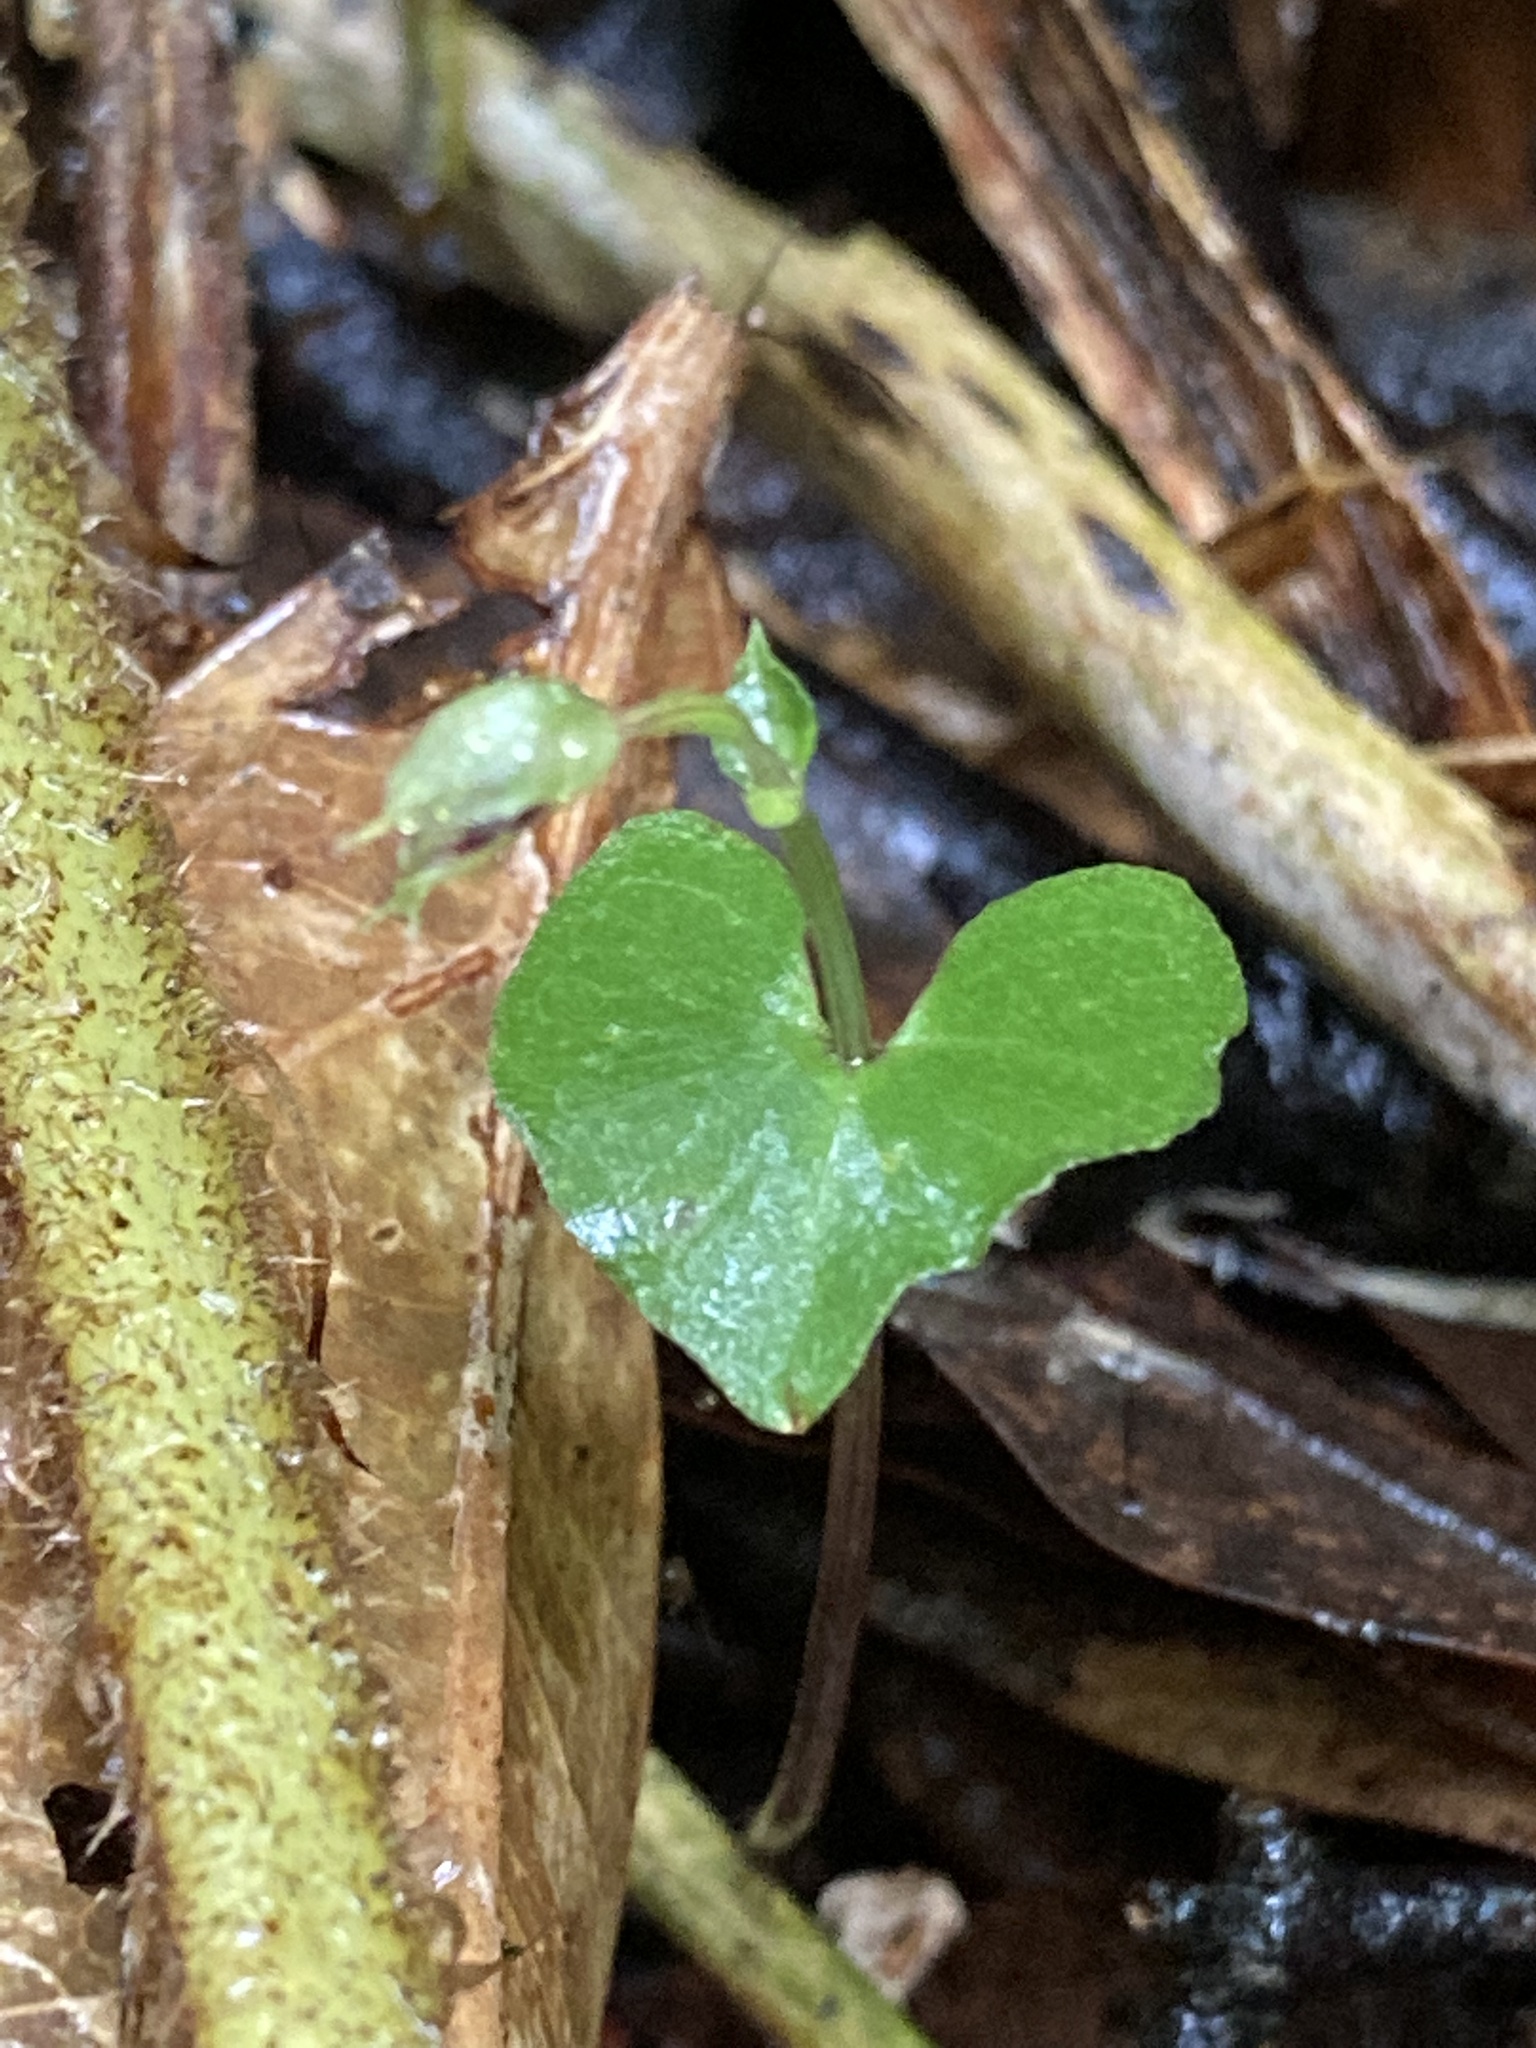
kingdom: Plantae
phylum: Tracheophyta
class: Liliopsida
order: Asparagales
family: Orchidaceae
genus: Acianthus
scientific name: Acianthus sinclairii
